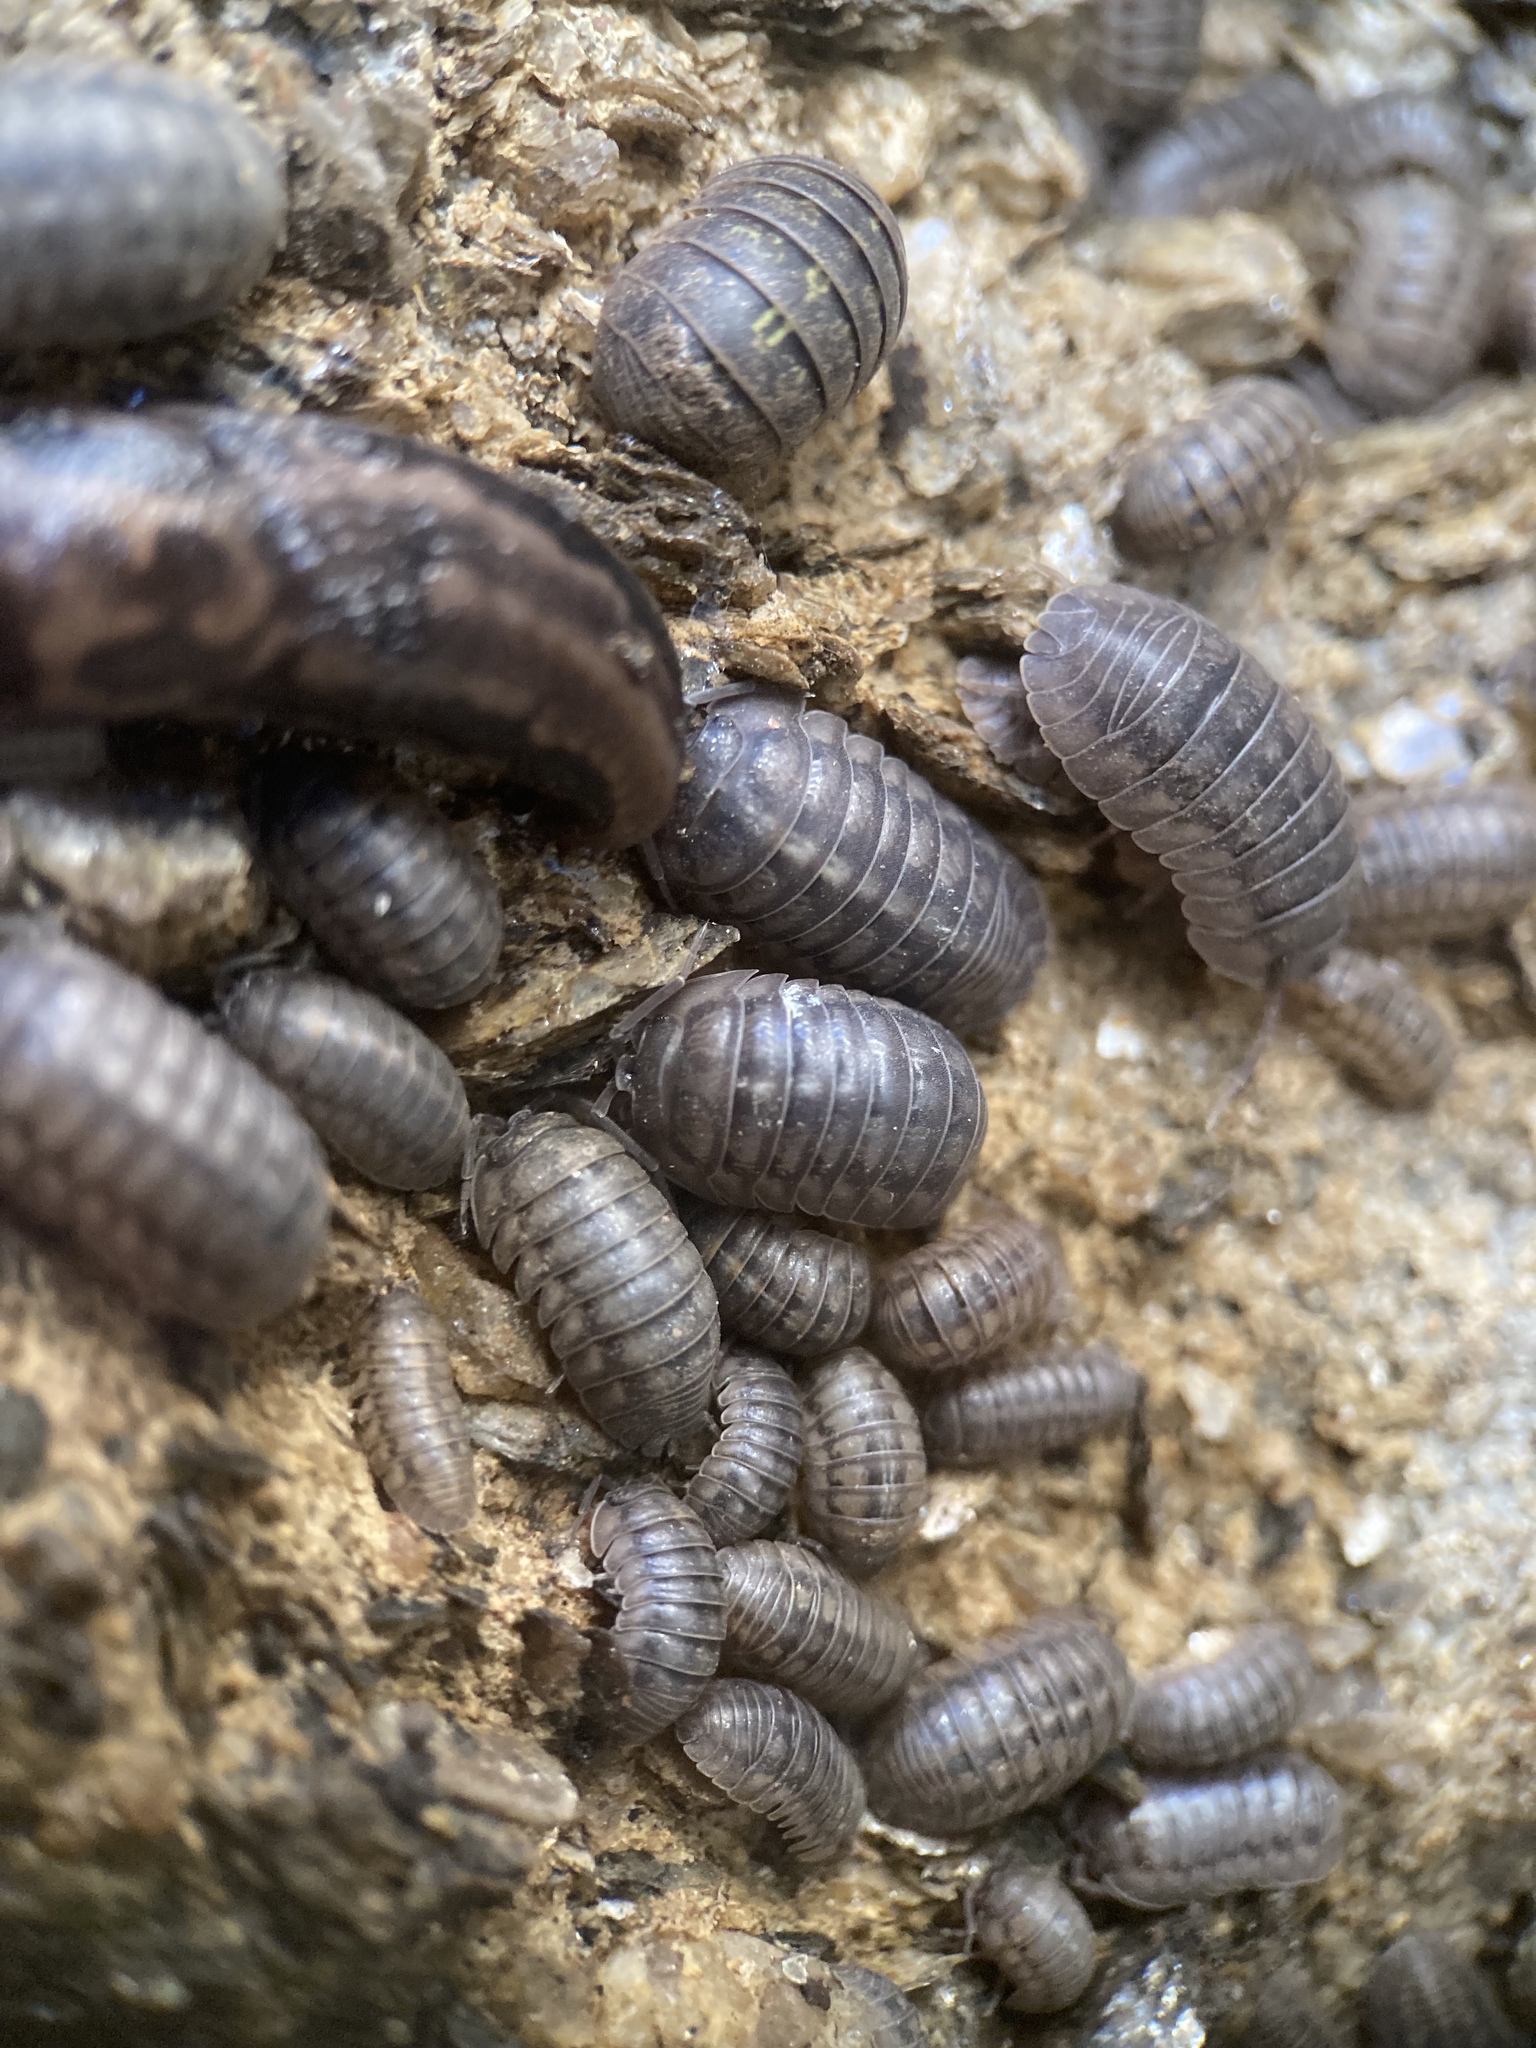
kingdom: Animalia
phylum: Mollusca
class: Gastropoda
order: Stylommatophora
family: Limacidae
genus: Limax
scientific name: Limax maximus
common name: Great grey slug
